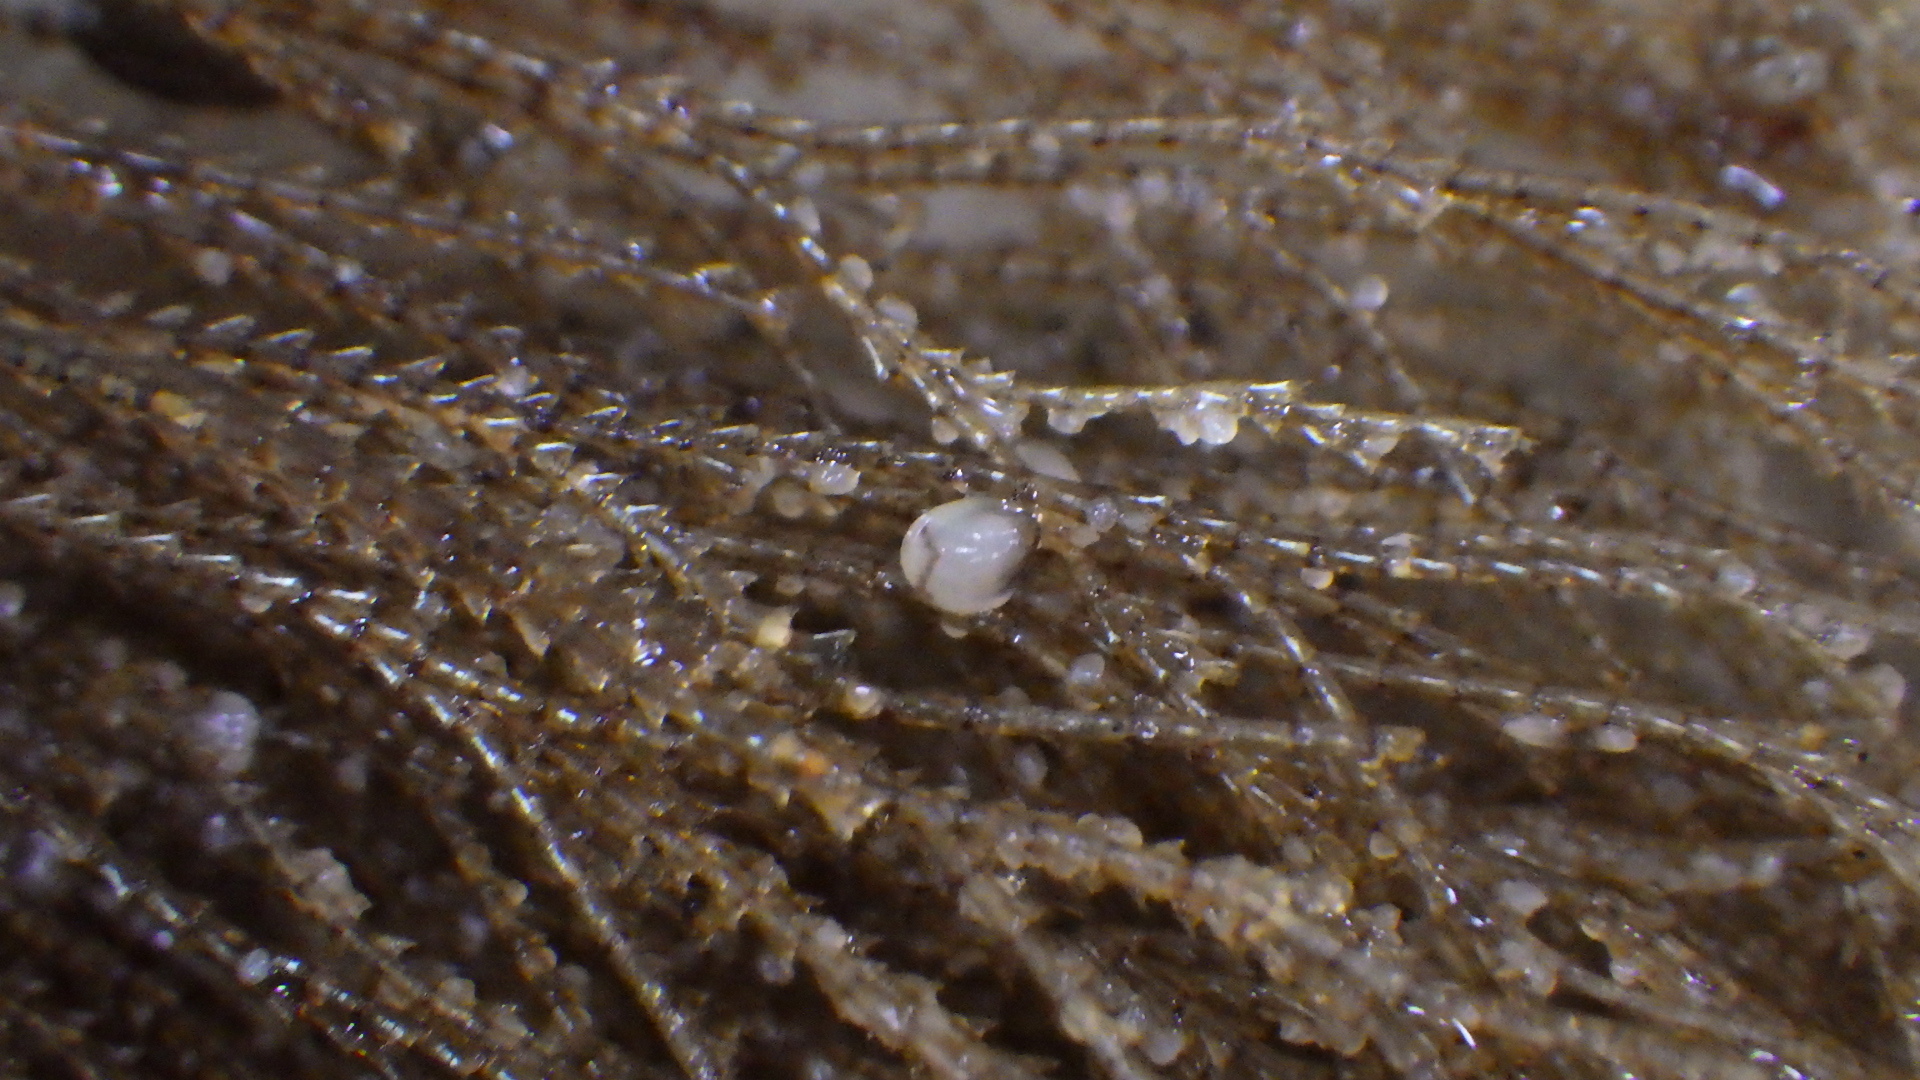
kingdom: Animalia
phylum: Mollusca
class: Bivalvia
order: Mytilida
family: Mytilidae
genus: Perna
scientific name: Perna canaliculus
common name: New zealand greenshelltm
